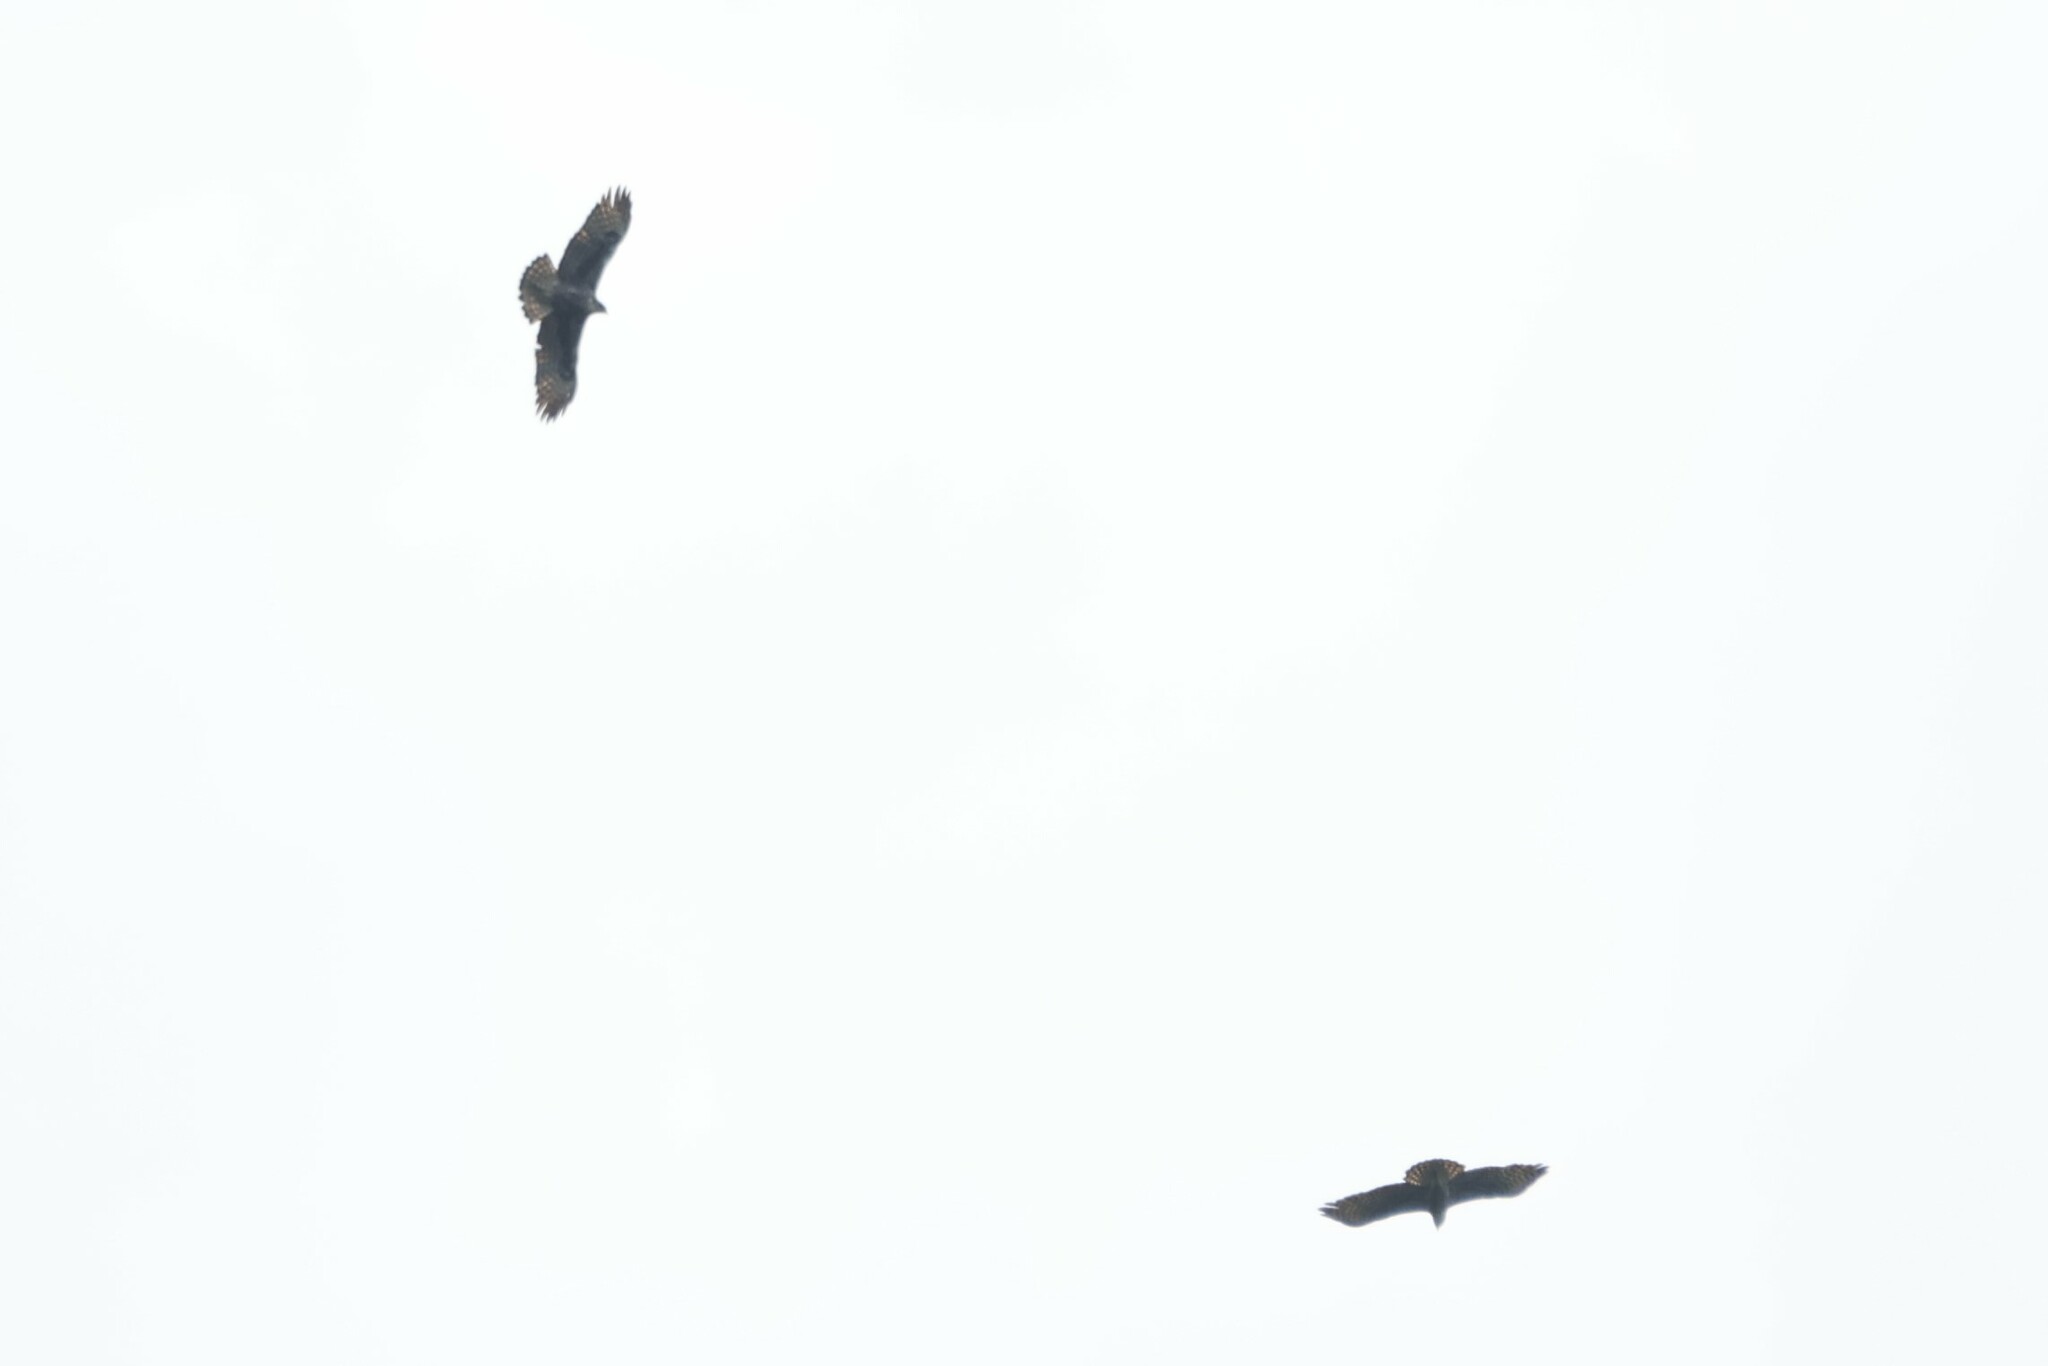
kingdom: Animalia
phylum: Chordata
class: Aves
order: Accipitriformes
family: Accipitridae
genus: Hieraaetus
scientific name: Hieraaetus ayresii
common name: Ayres's hawk-eagle
